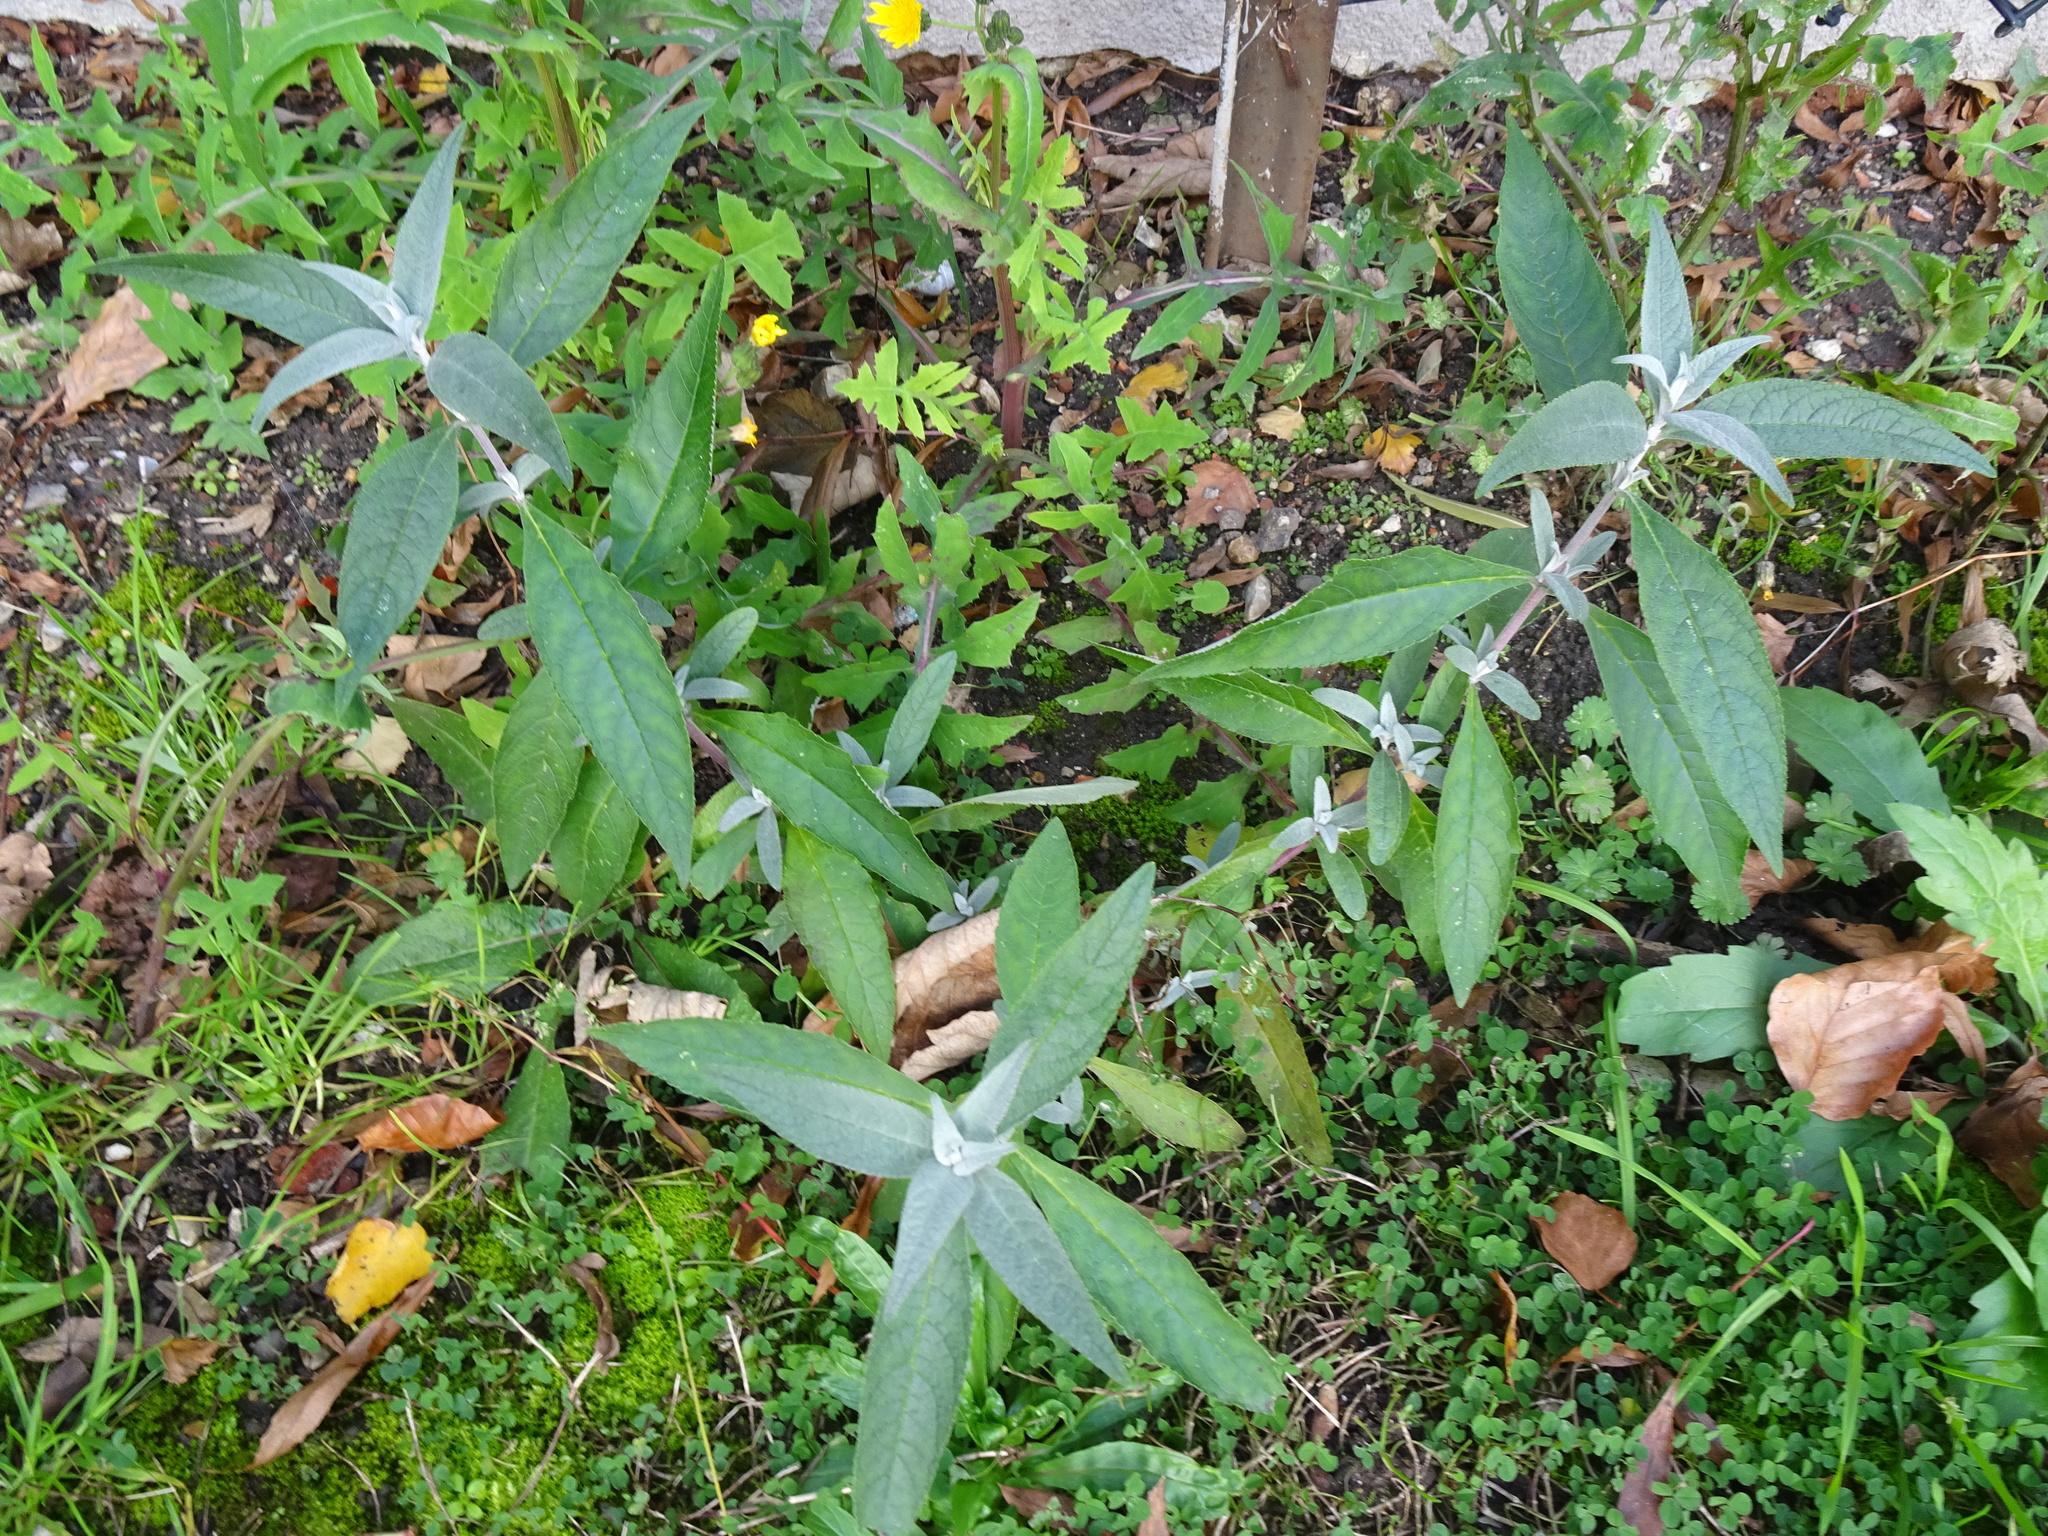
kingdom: Plantae
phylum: Tracheophyta
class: Magnoliopsida
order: Lamiales
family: Scrophulariaceae
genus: Buddleja
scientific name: Buddleja davidii
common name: Butterfly-bush
